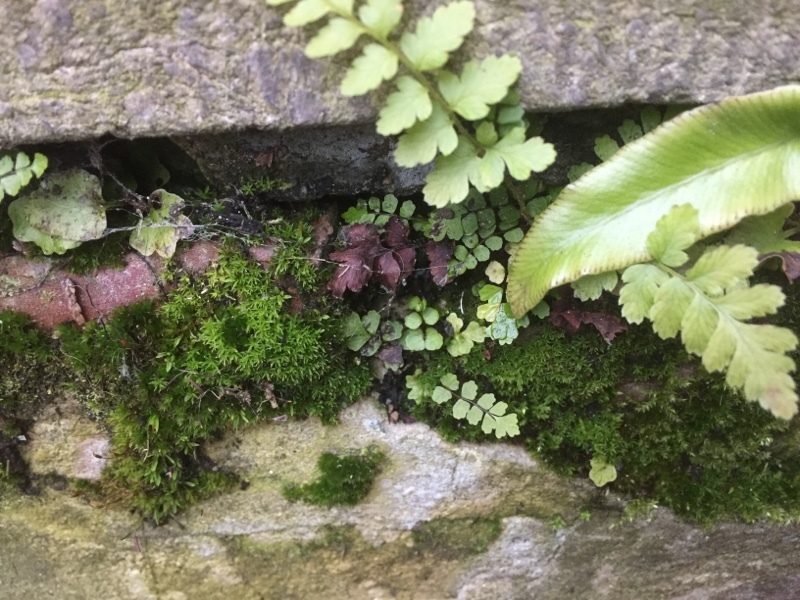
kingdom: Plantae
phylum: Tracheophyta
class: Polypodiopsida
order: Polypodiales
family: Aspleniaceae
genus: Asplenium
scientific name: Asplenium scolopendrium
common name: Hart's-tongue fern
